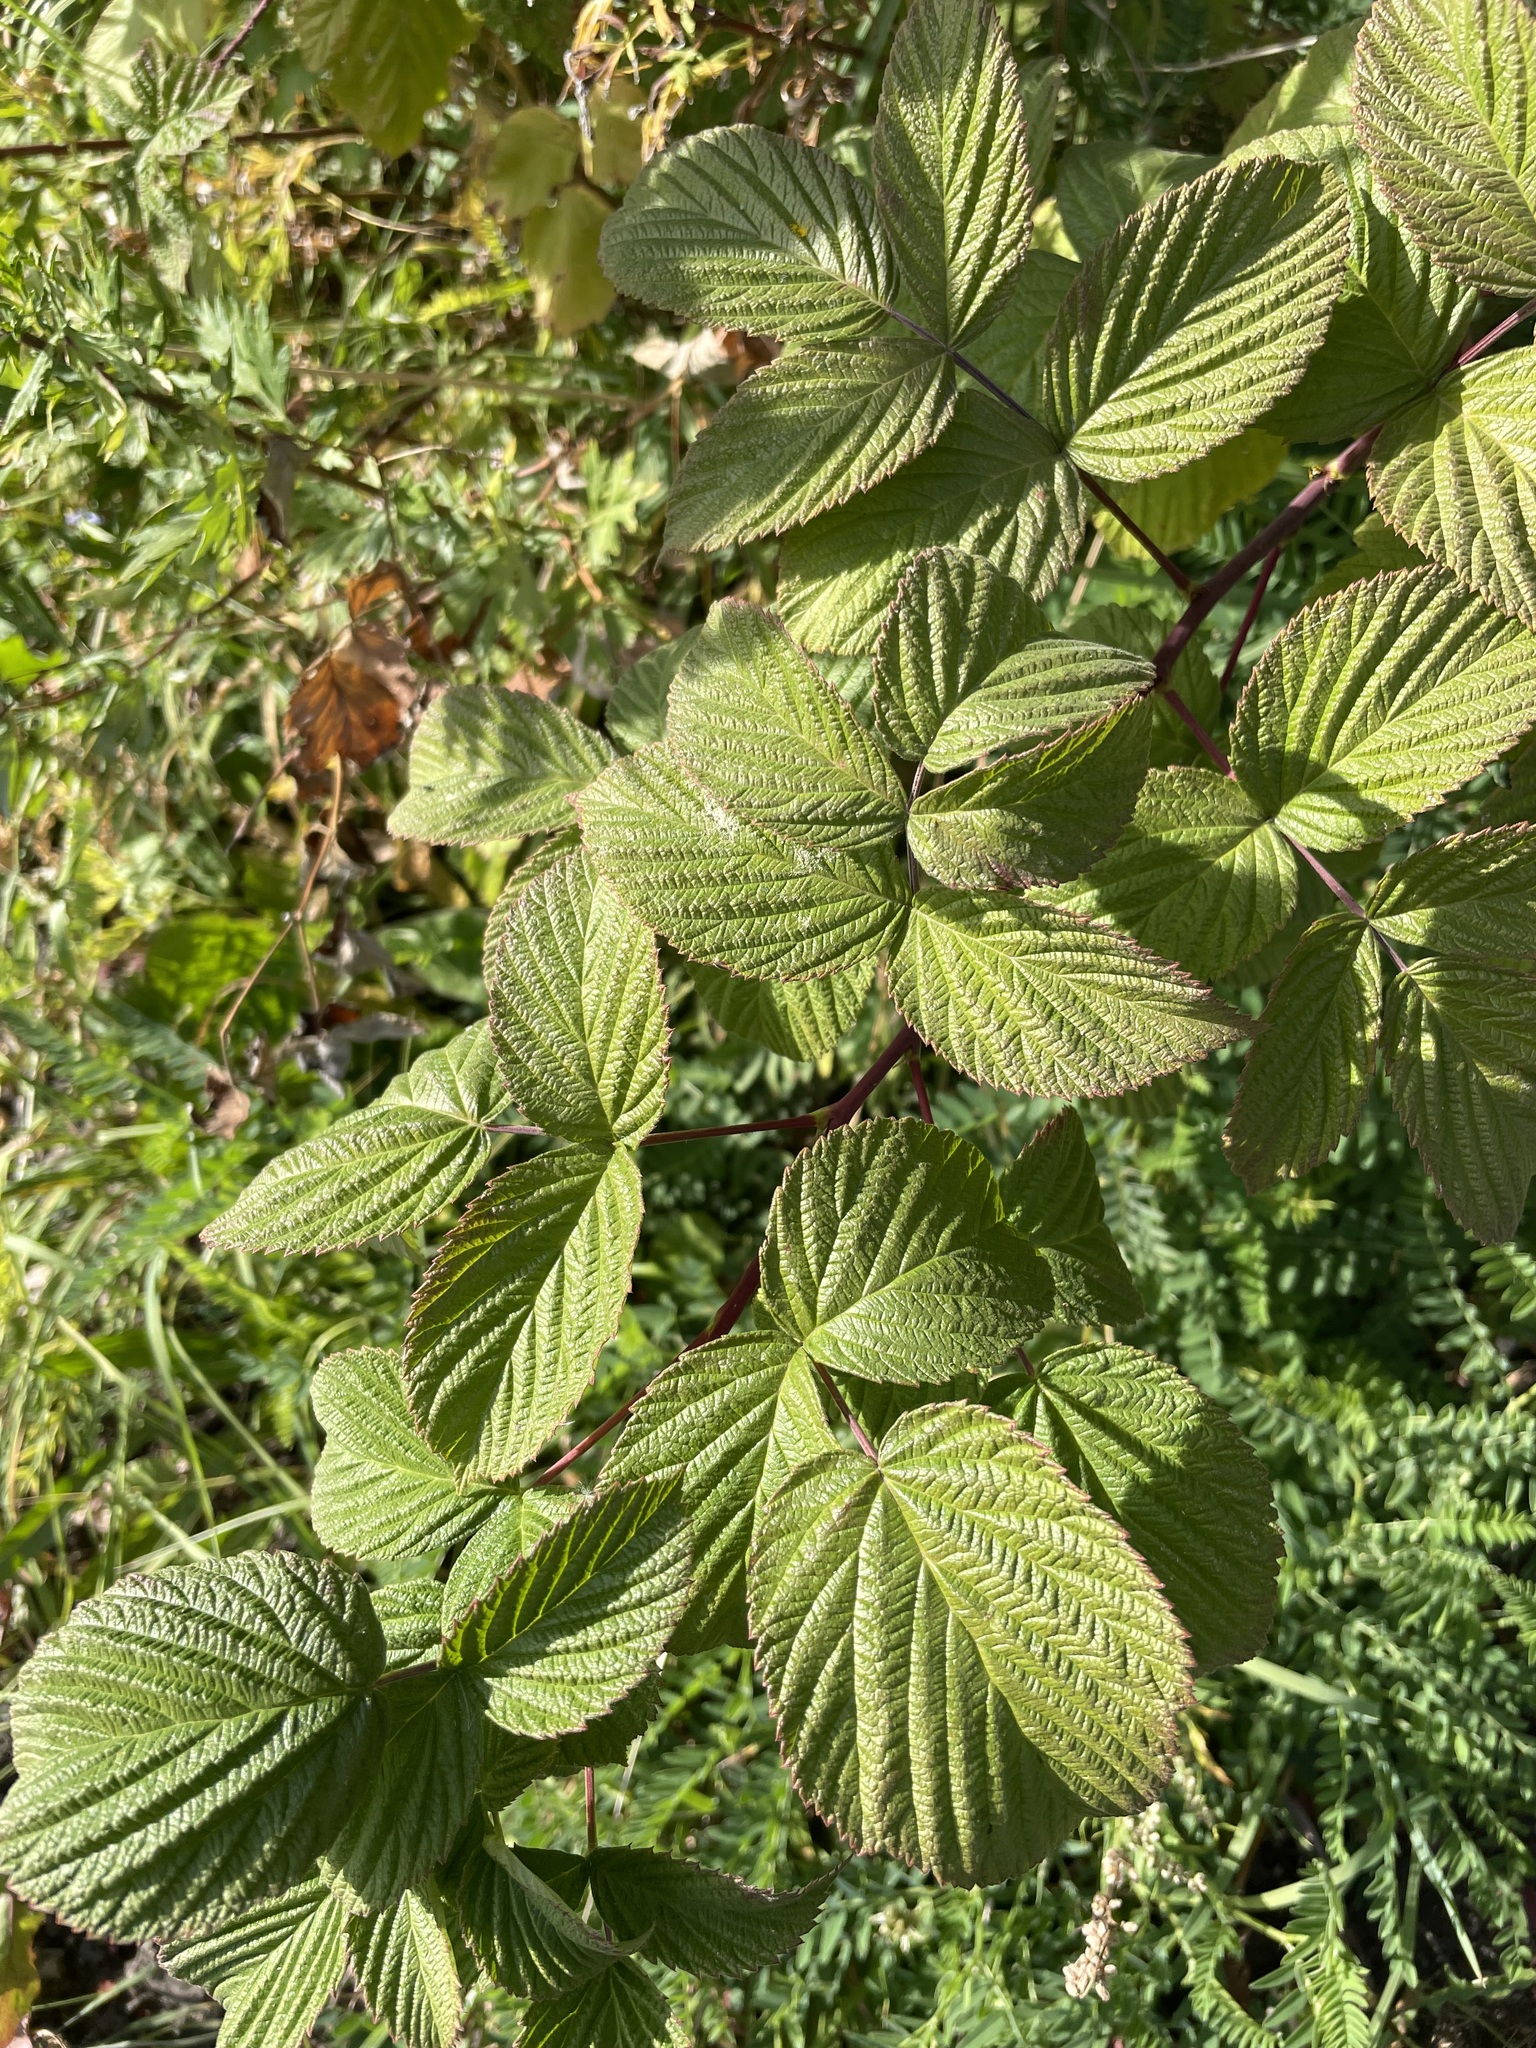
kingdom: Plantae
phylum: Tracheophyta
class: Magnoliopsida
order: Rosales
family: Rosaceae
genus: Rubus
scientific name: Rubus idaeus
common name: Raspberry
